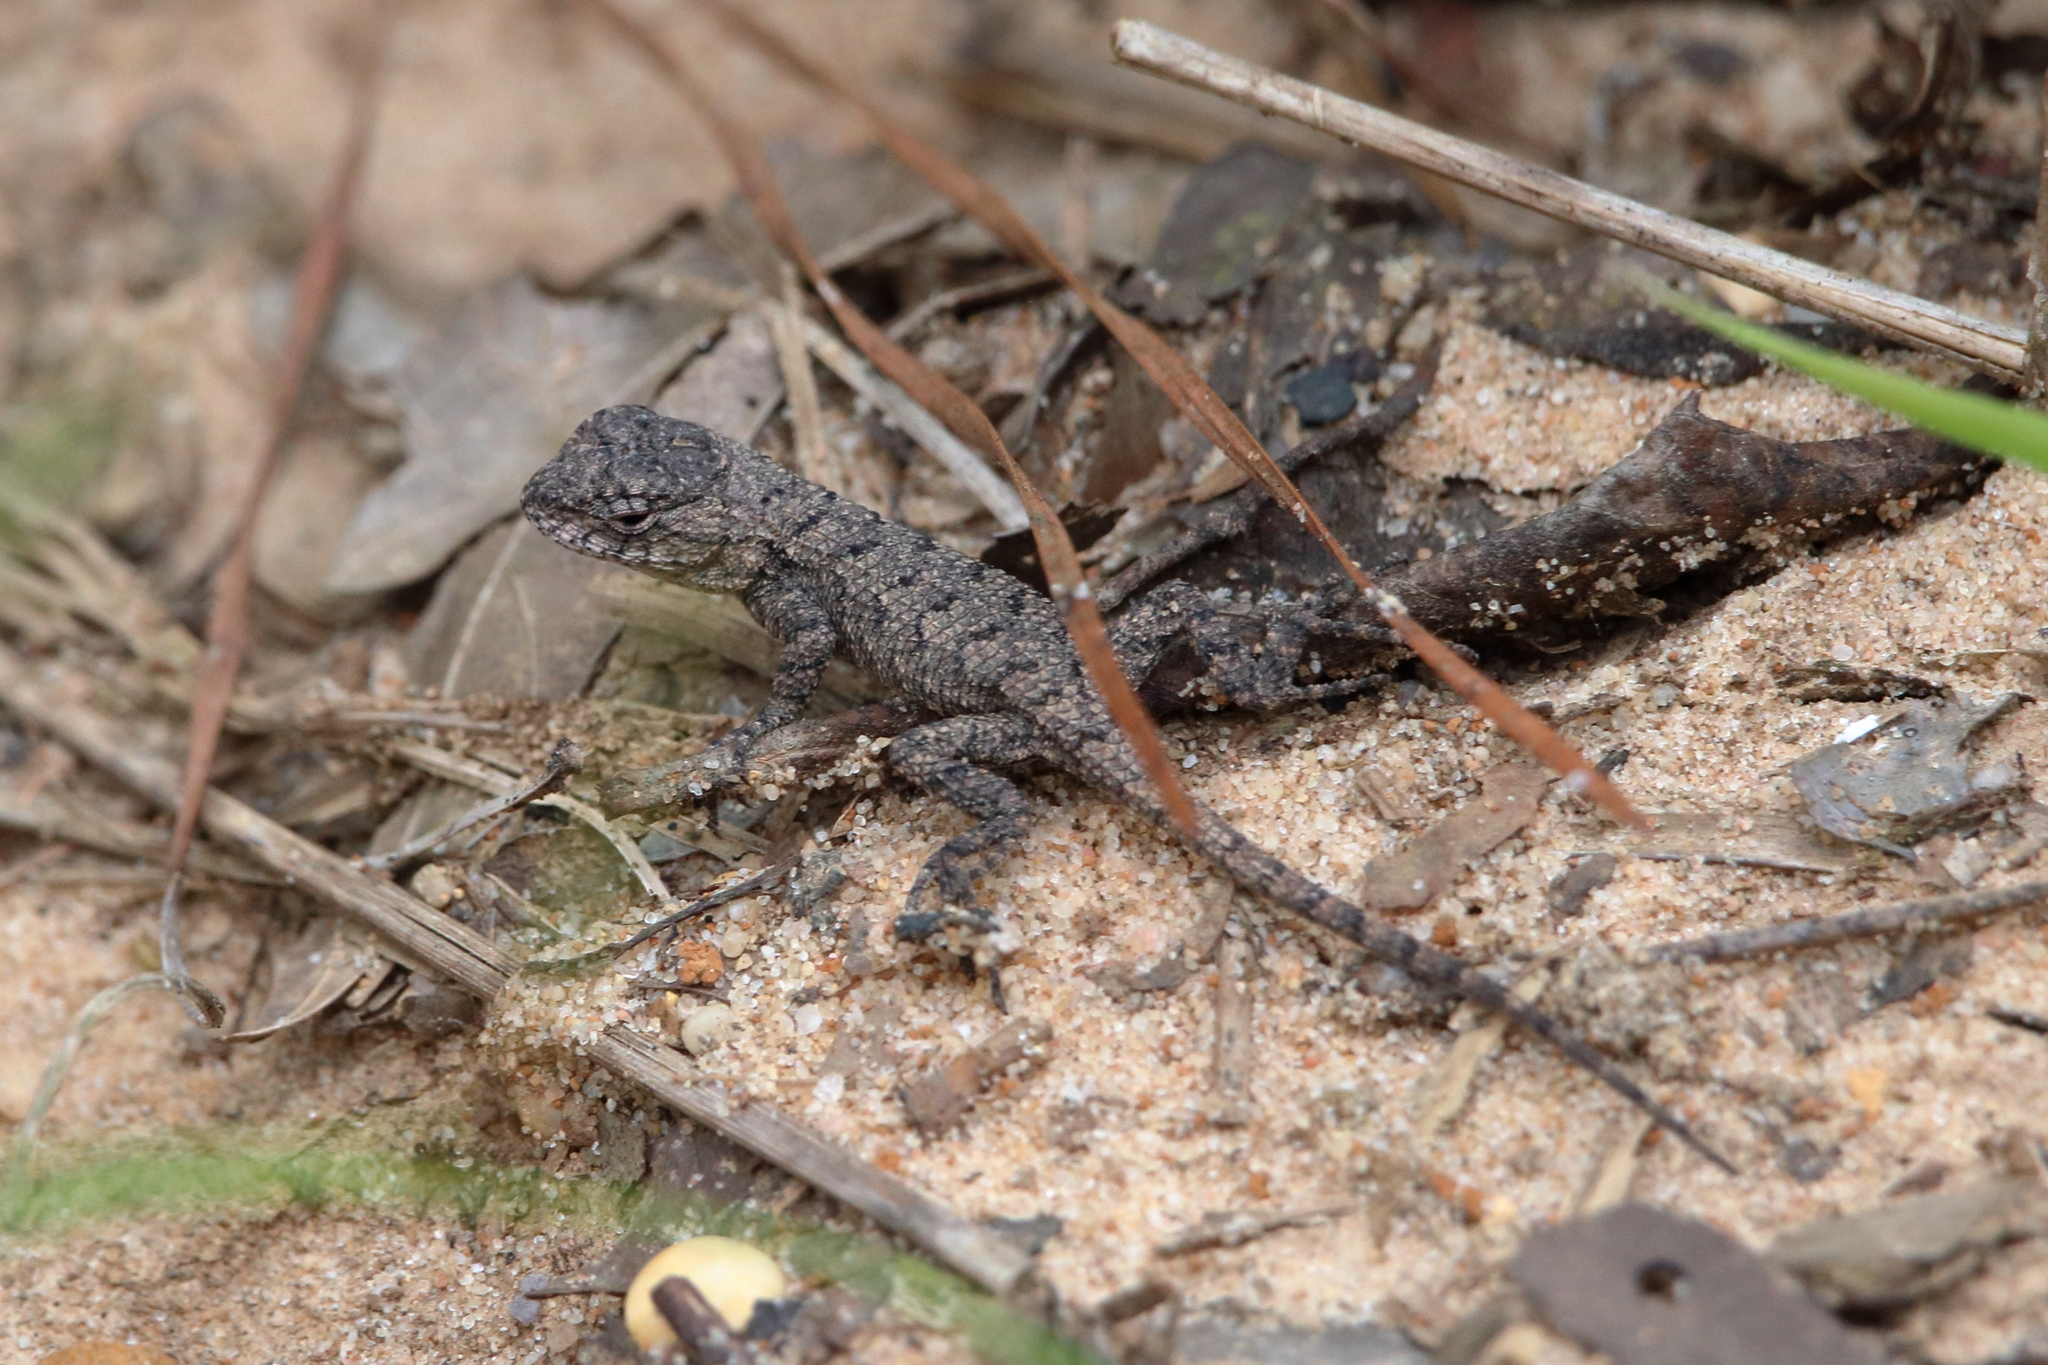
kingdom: Animalia
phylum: Chordata
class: Squamata
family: Phrynosomatidae
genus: Sceloporus
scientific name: Sceloporus consobrinus
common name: Southern prairie lizard
